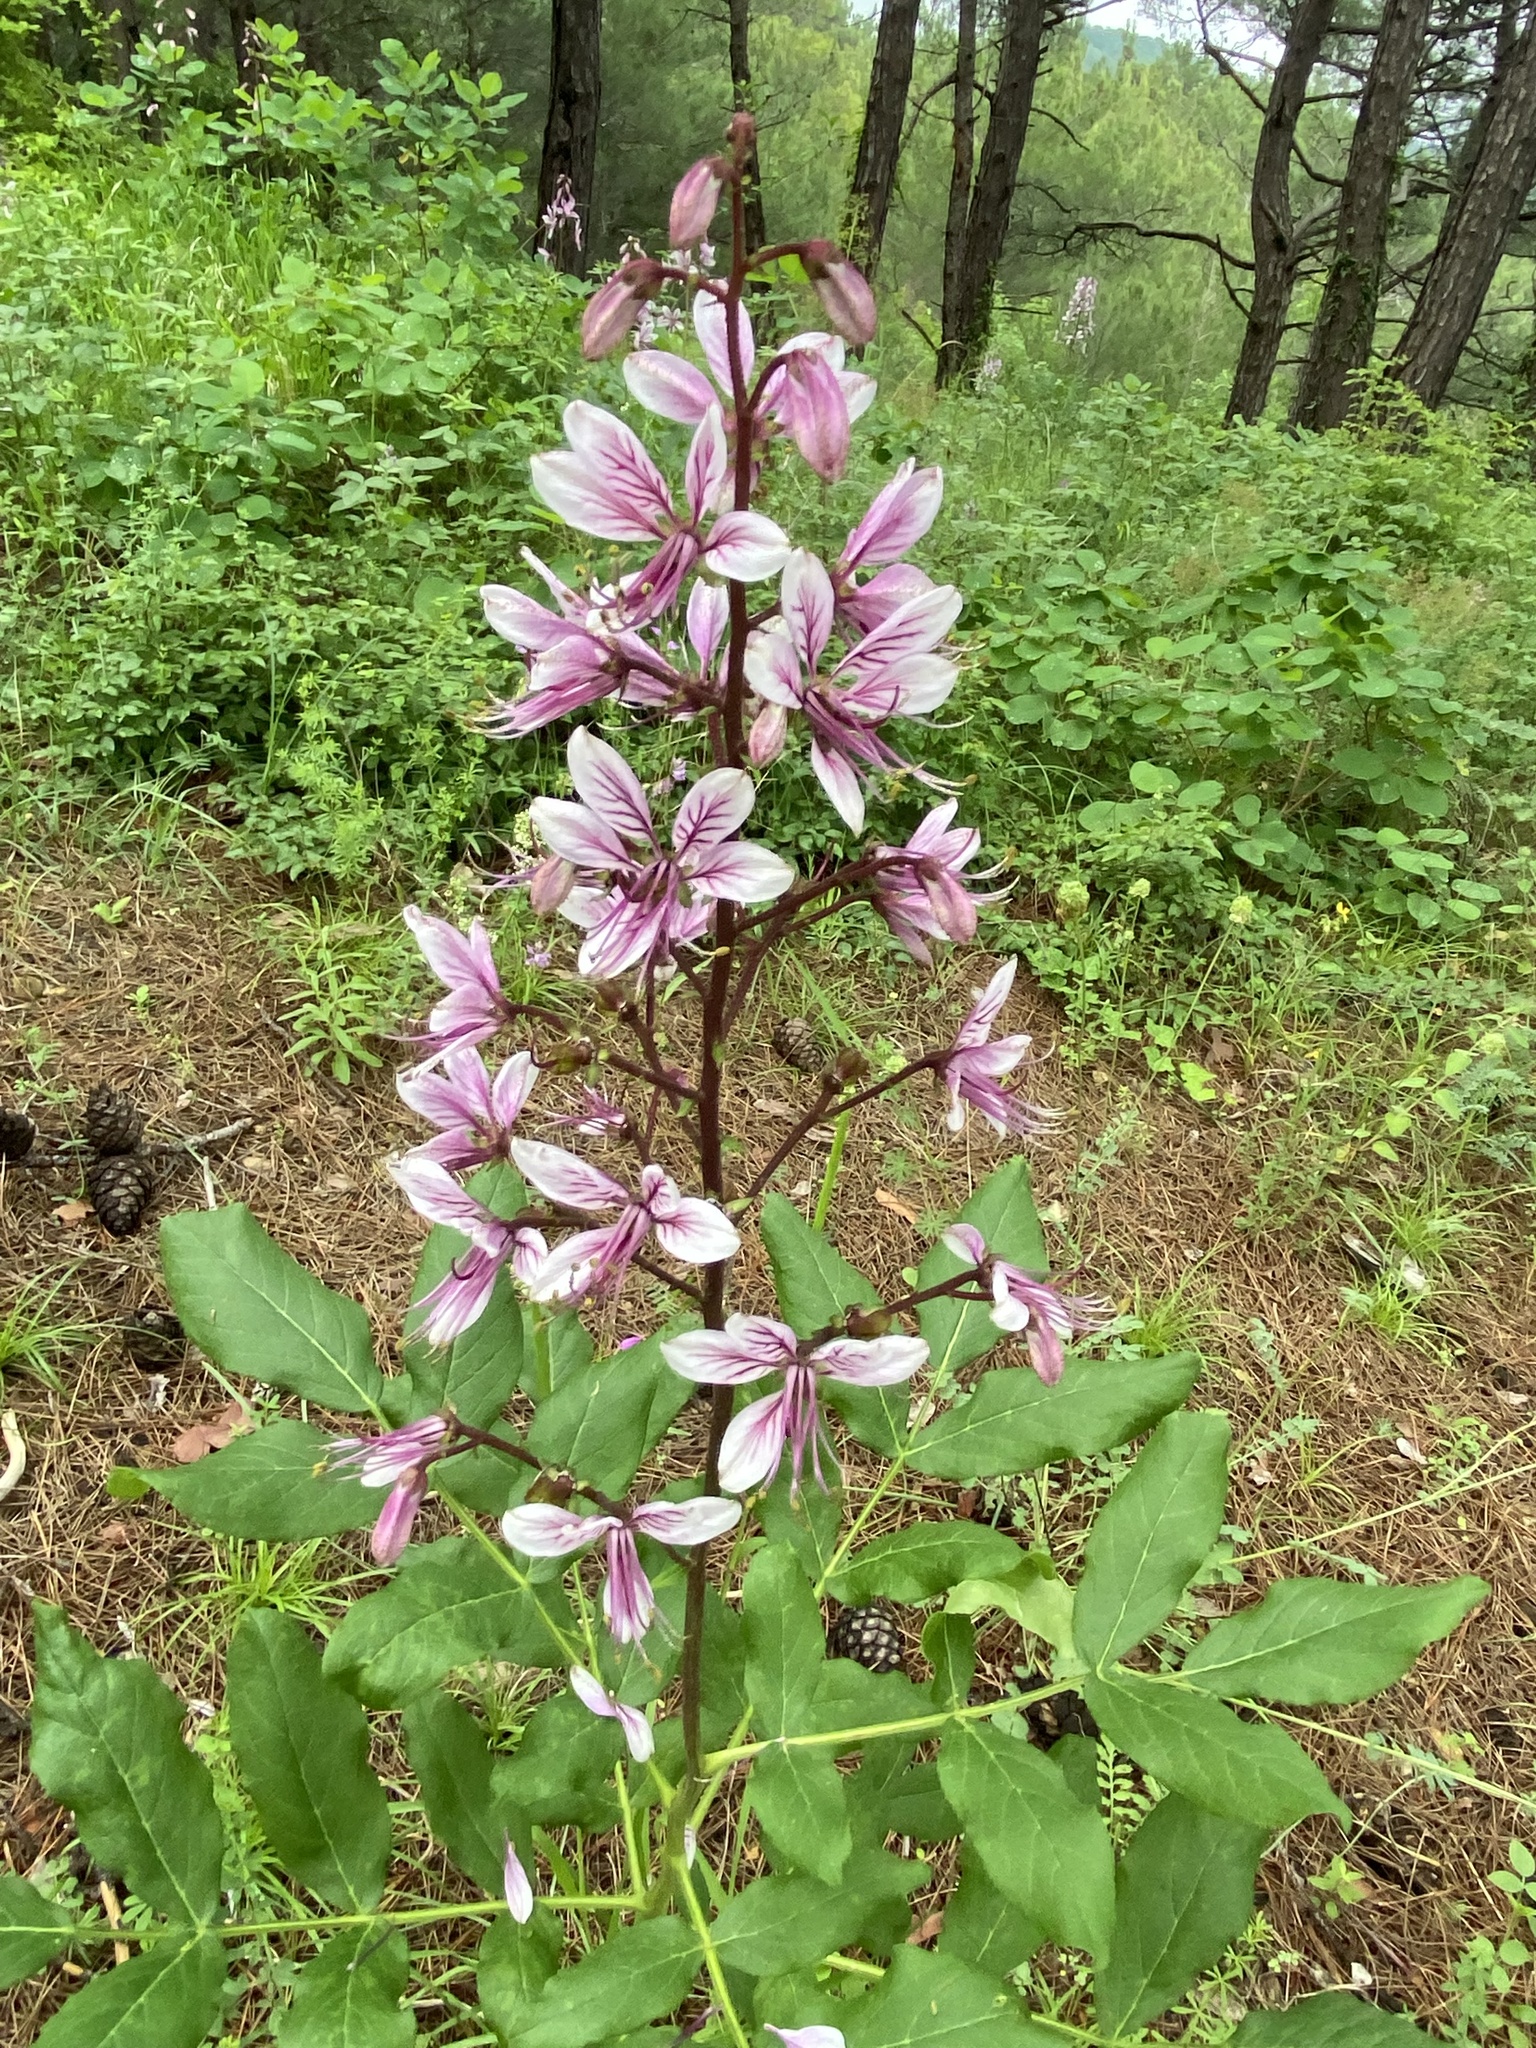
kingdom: Plantae
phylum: Tracheophyta
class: Magnoliopsida
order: Sapindales
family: Rutaceae
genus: Dictamnus
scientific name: Dictamnus albus
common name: Gasplant
